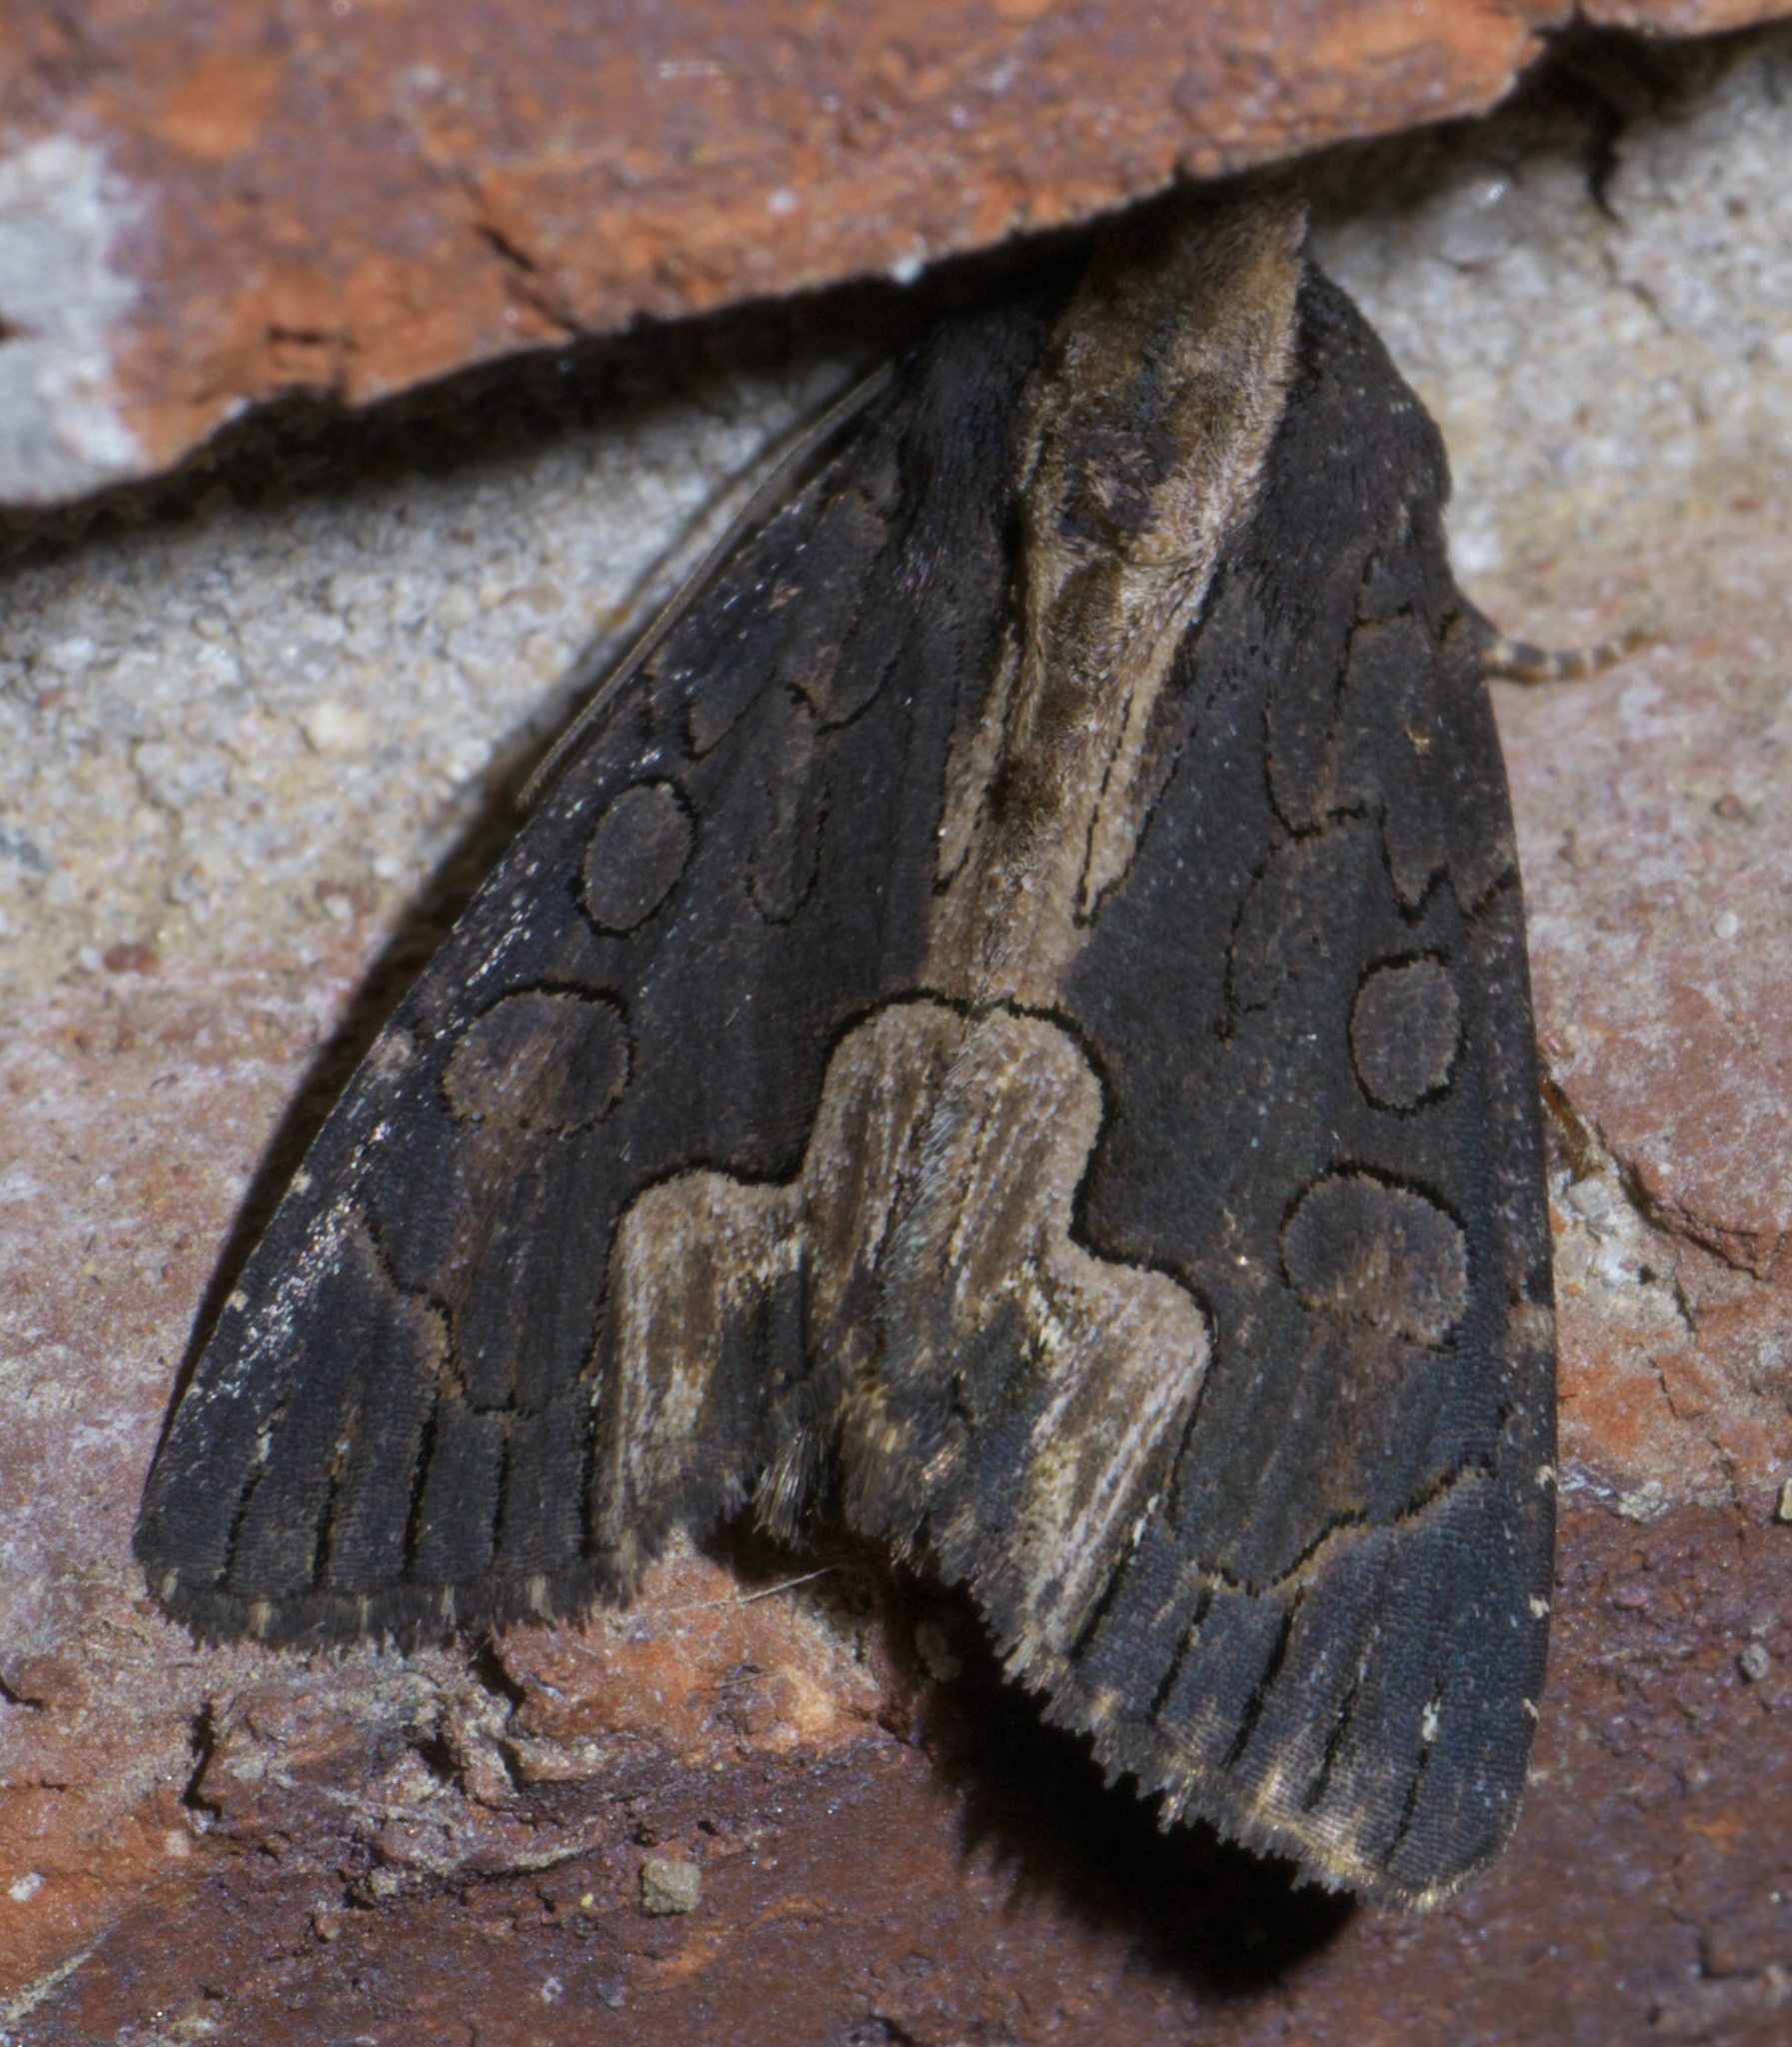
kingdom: Animalia
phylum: Arthropoda
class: Insecta
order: Lepidoptera
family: Noctuidae
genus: Dypterygia
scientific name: Dypterygia rozmani
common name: American bird's-wing
